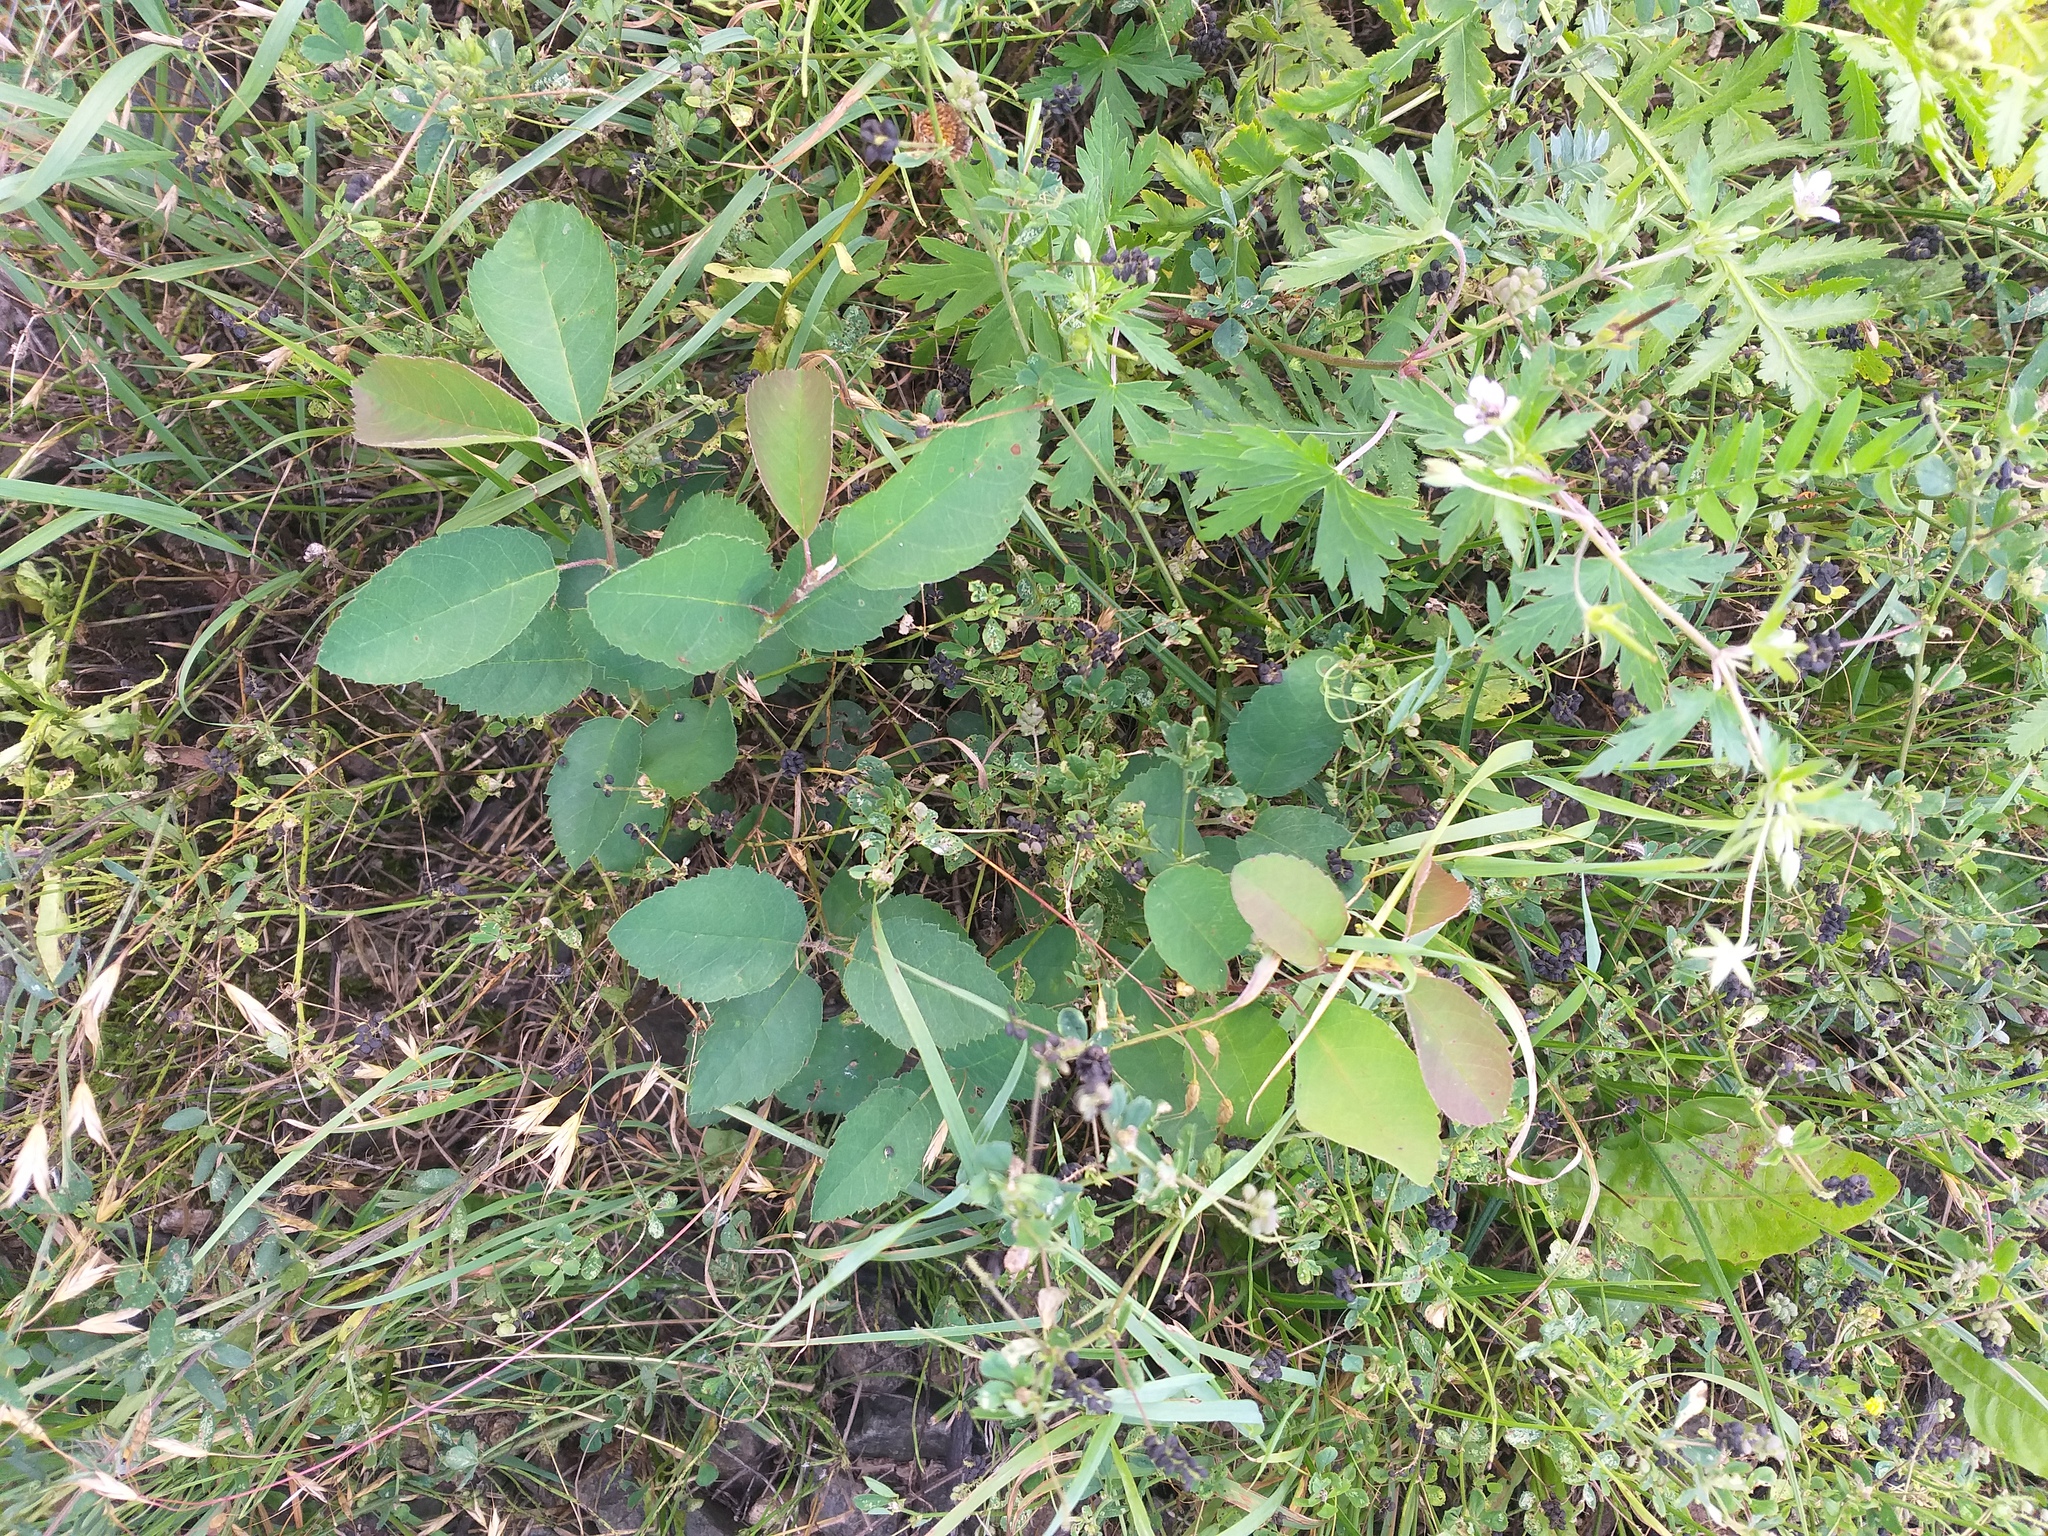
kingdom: Plantae
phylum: Tracheophyta
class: Magnoliopsida
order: Rosales
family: Rosaceae
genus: Amelanchier
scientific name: Amelanchier
